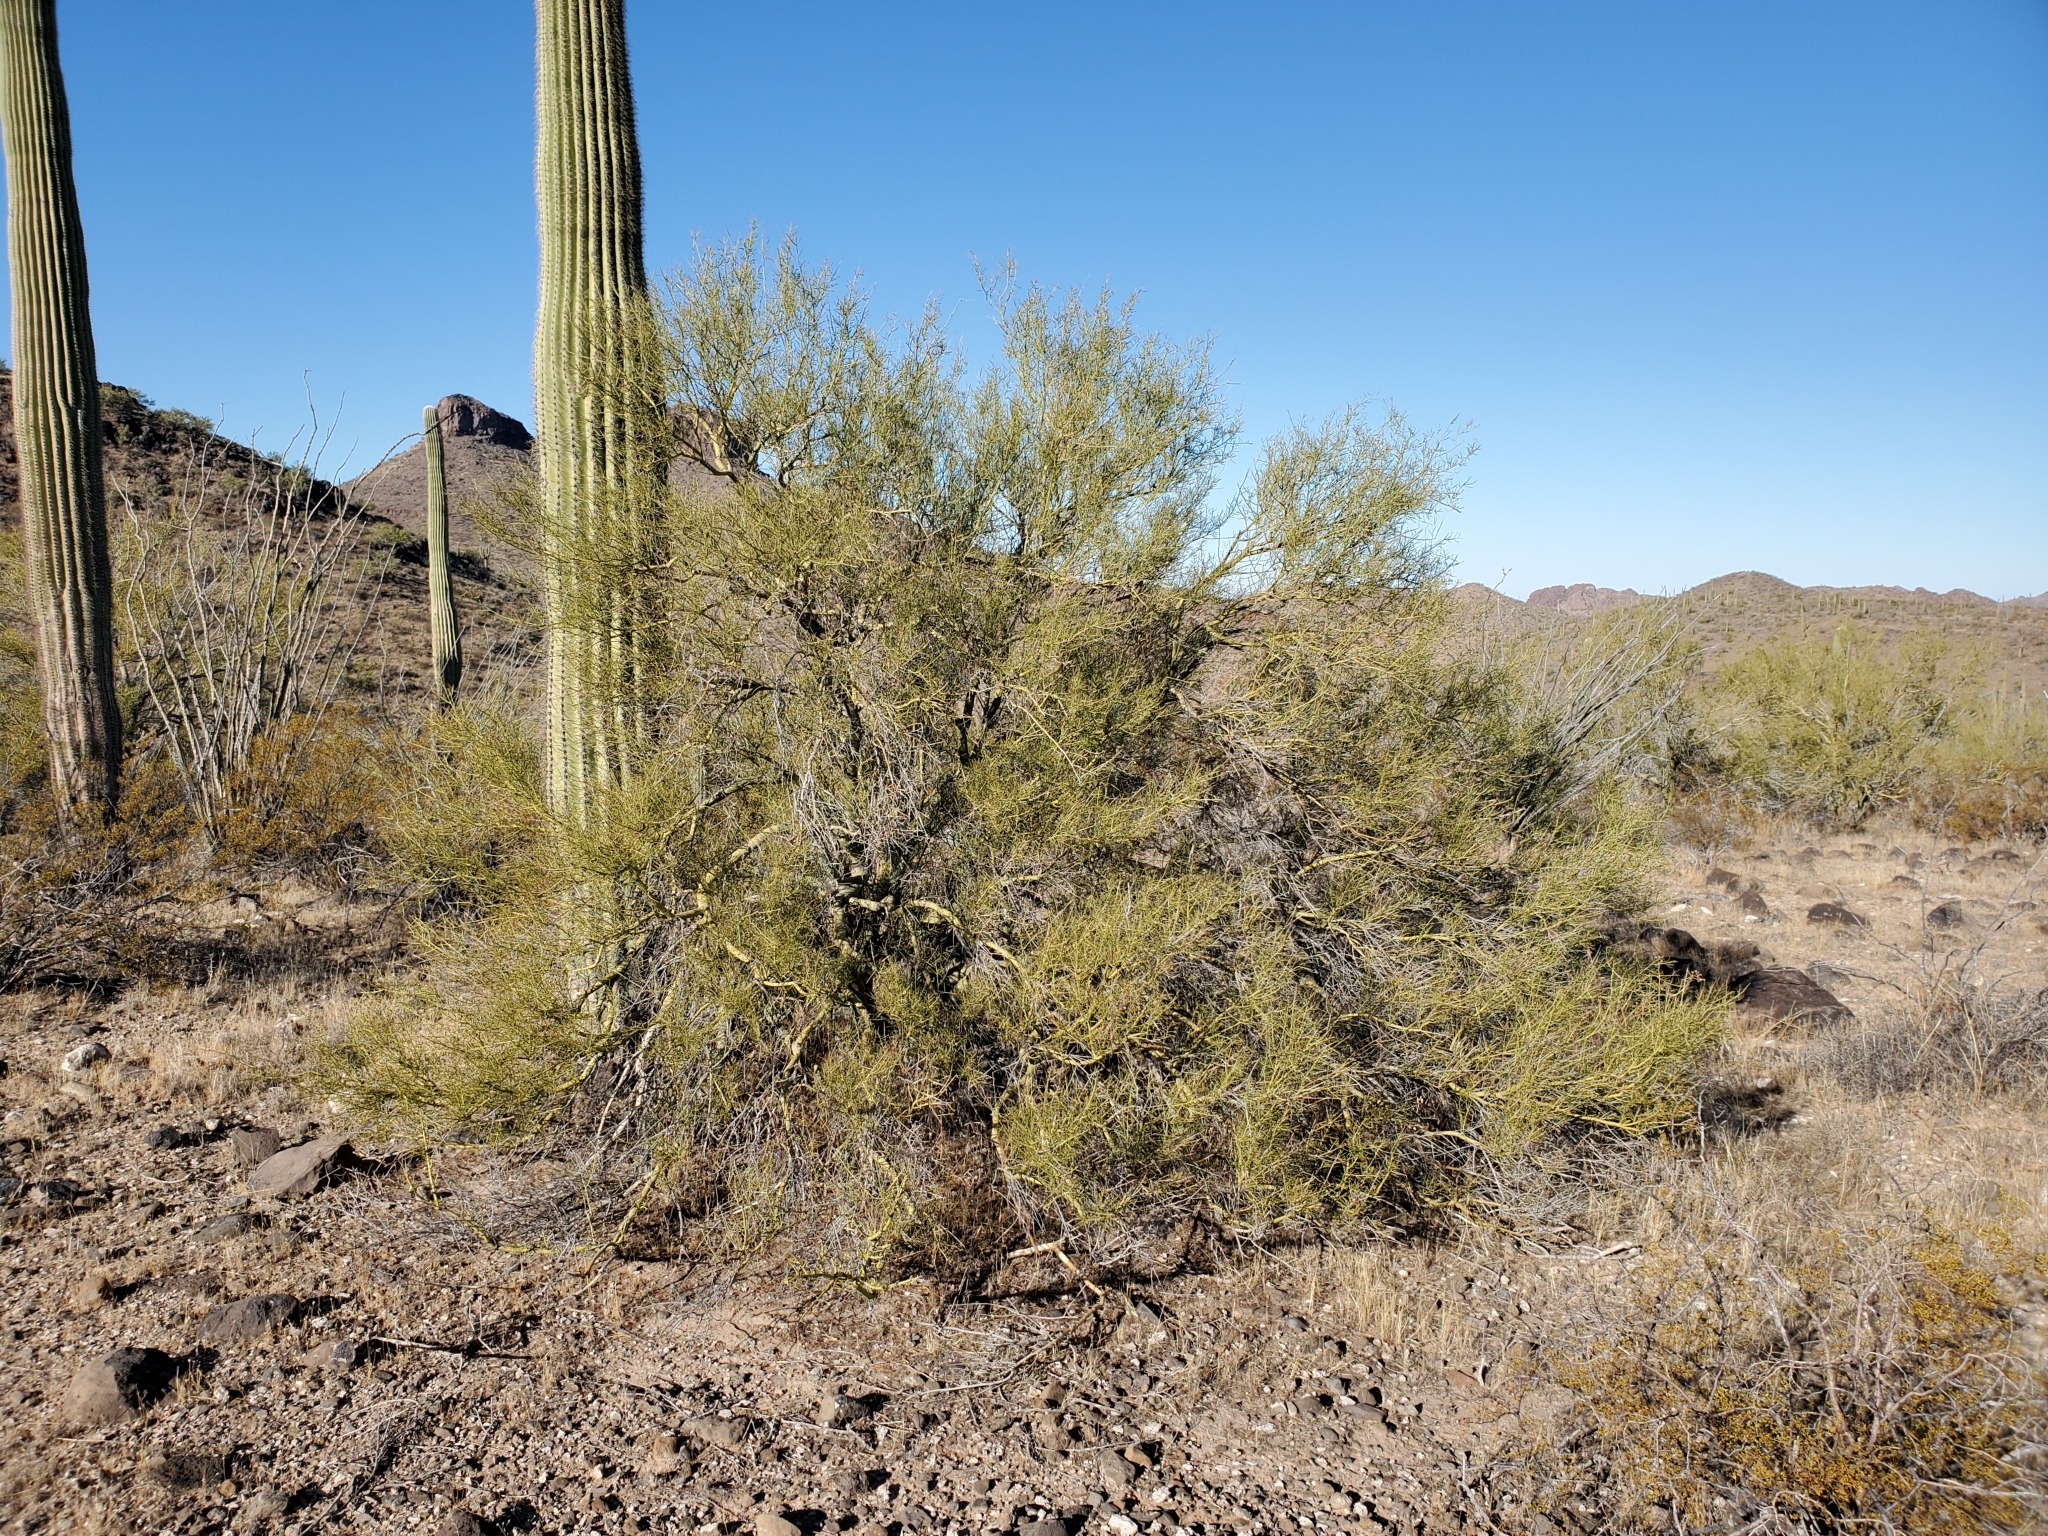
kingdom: Plantae
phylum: Tracheophyta
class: Magnoliopsida
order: Fabales
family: Fabaceae
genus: Parkinsonia
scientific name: Parkinsonia microphylla
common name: Yellow paloverde
